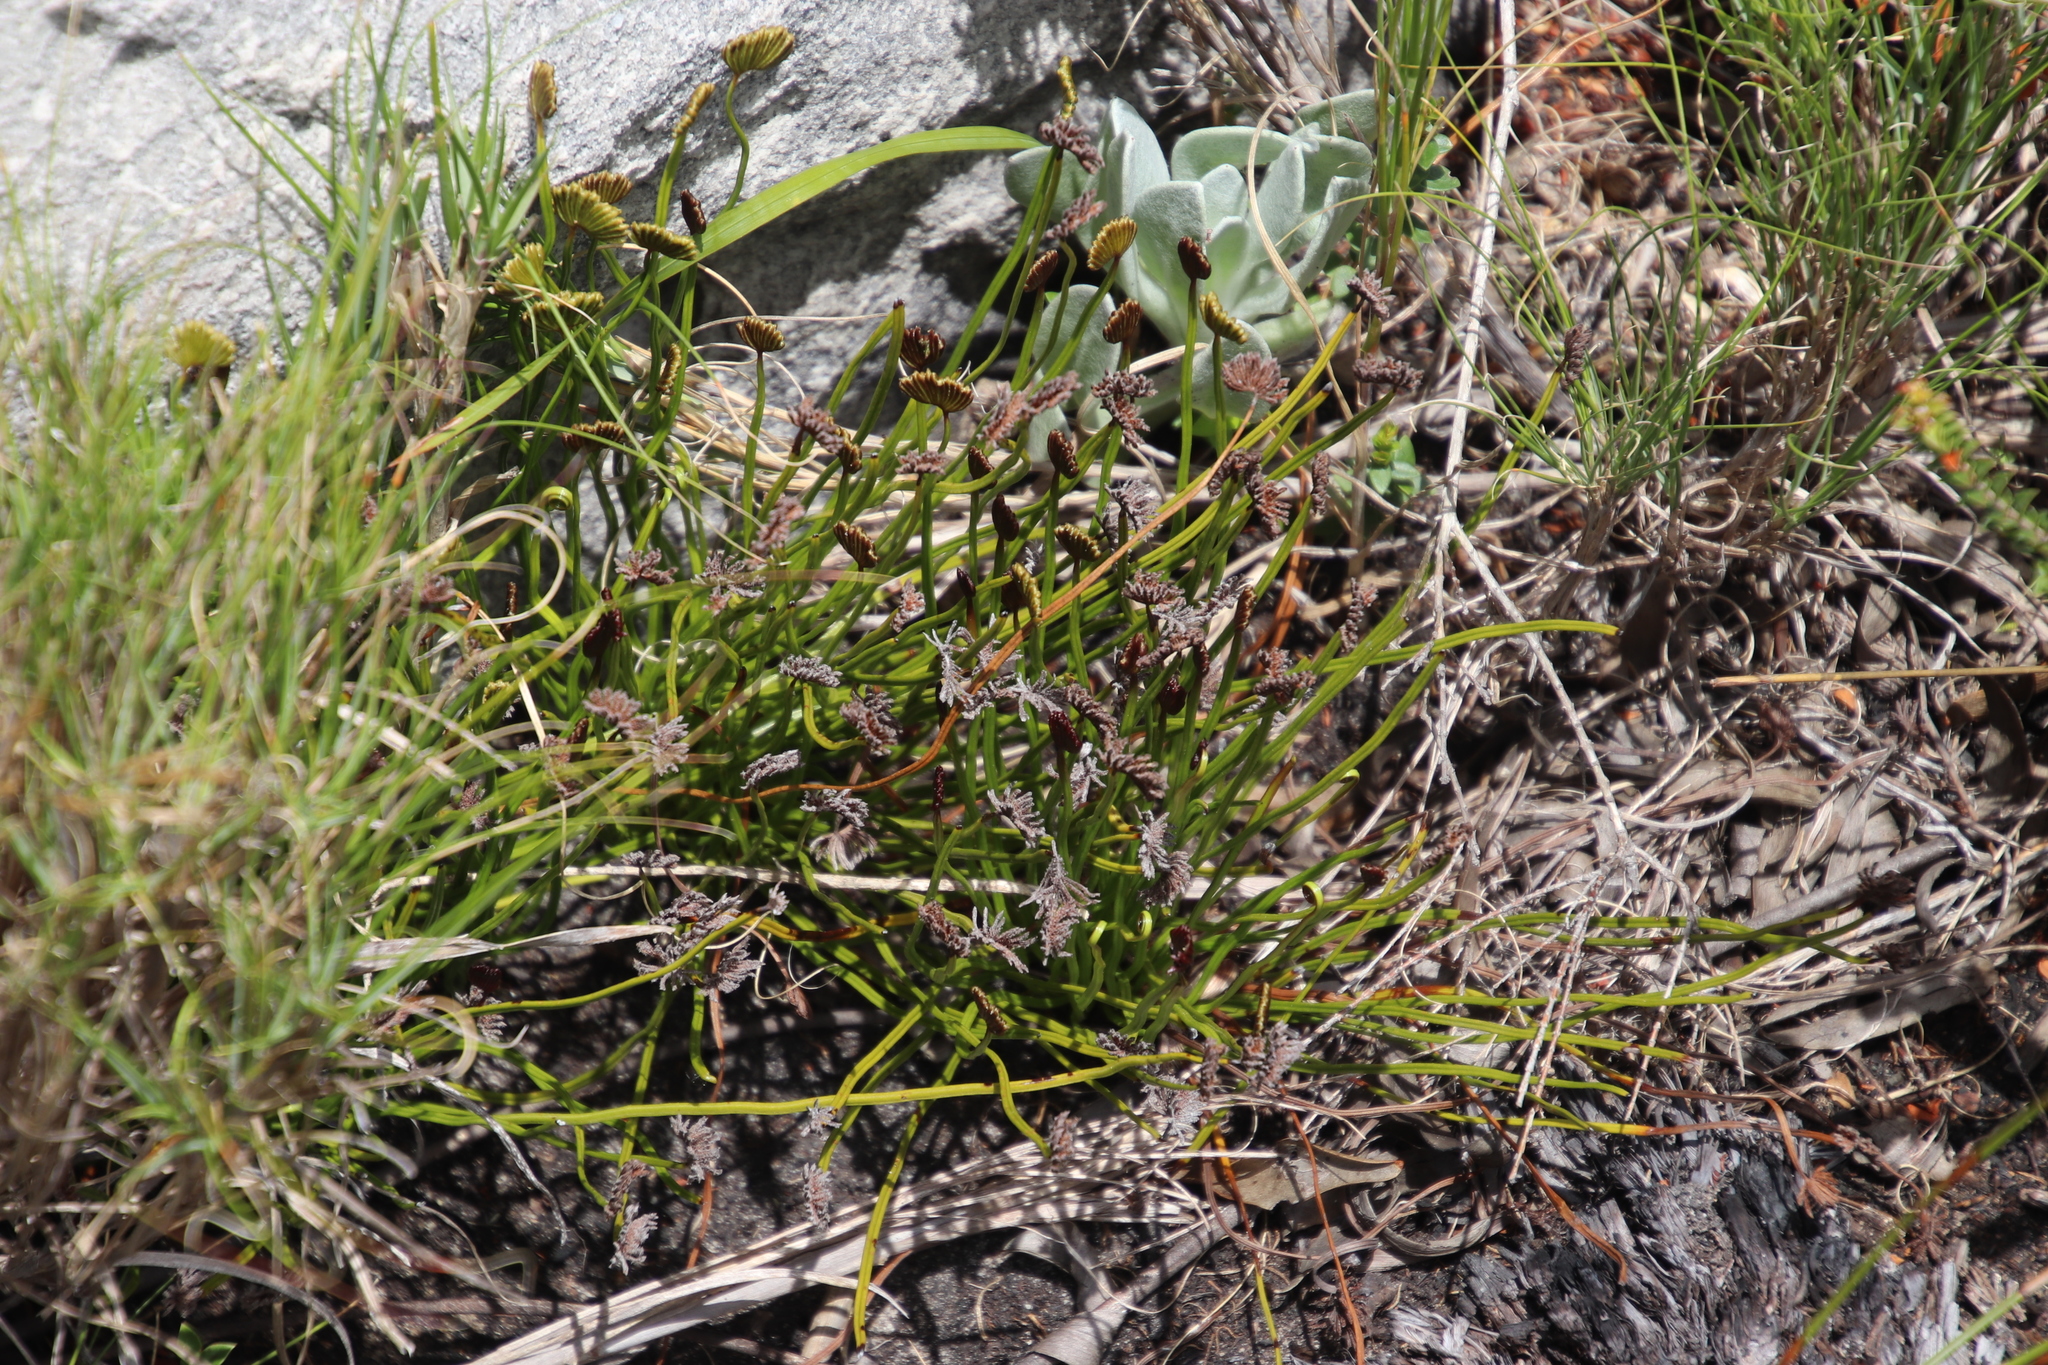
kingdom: Plantae
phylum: Tracheophyta
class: Polypodiopsida
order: Schizaeales
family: Schizaeaceae
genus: Schizaea
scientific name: Schizaea pectinata
